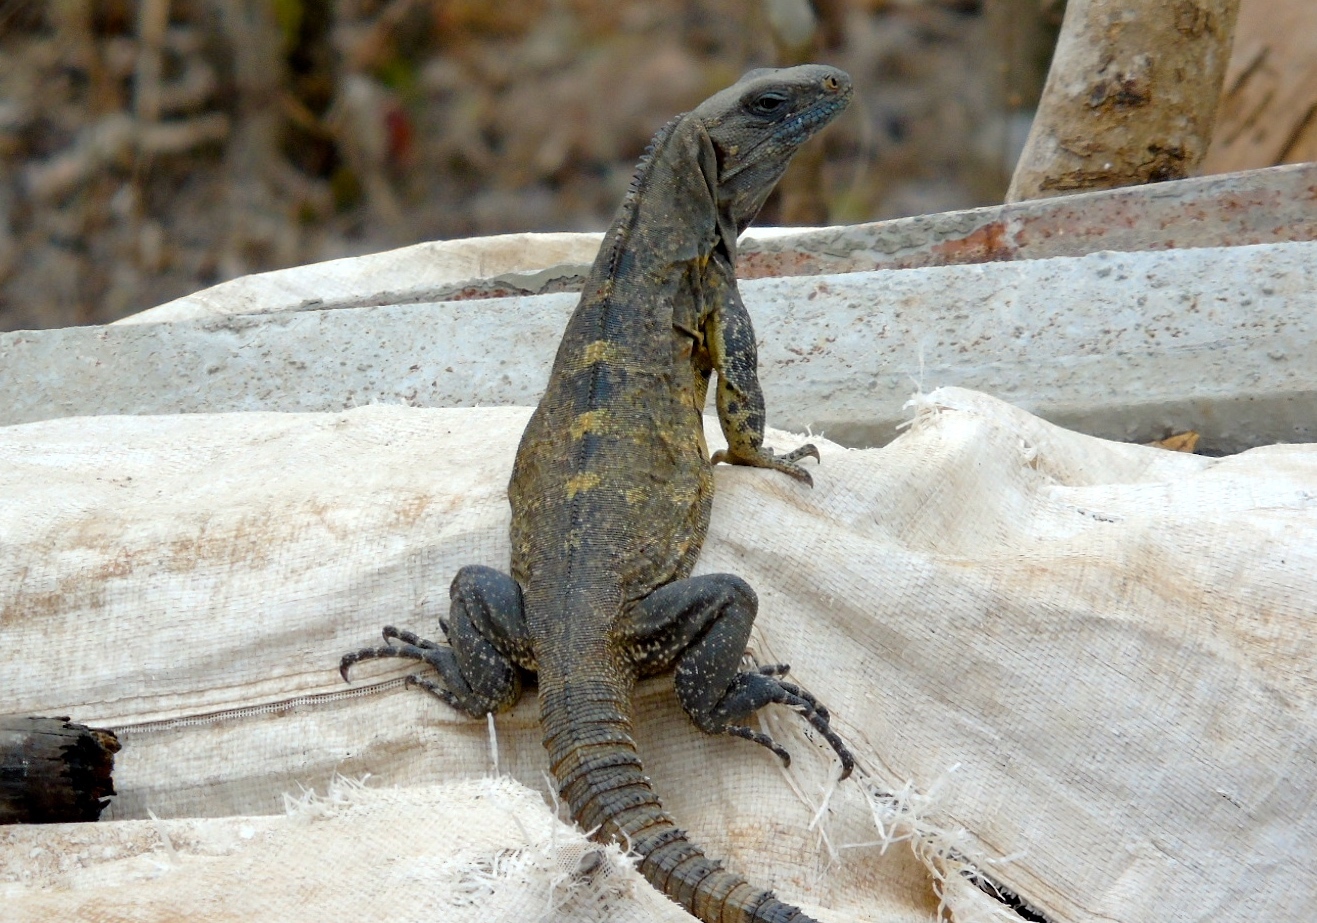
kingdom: Animalia
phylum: Chordata
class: Squamata
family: Iguanidae
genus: Ctenosaura
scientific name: Ctenosaura pectinata
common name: Guerreran spiny-tailed iguana
